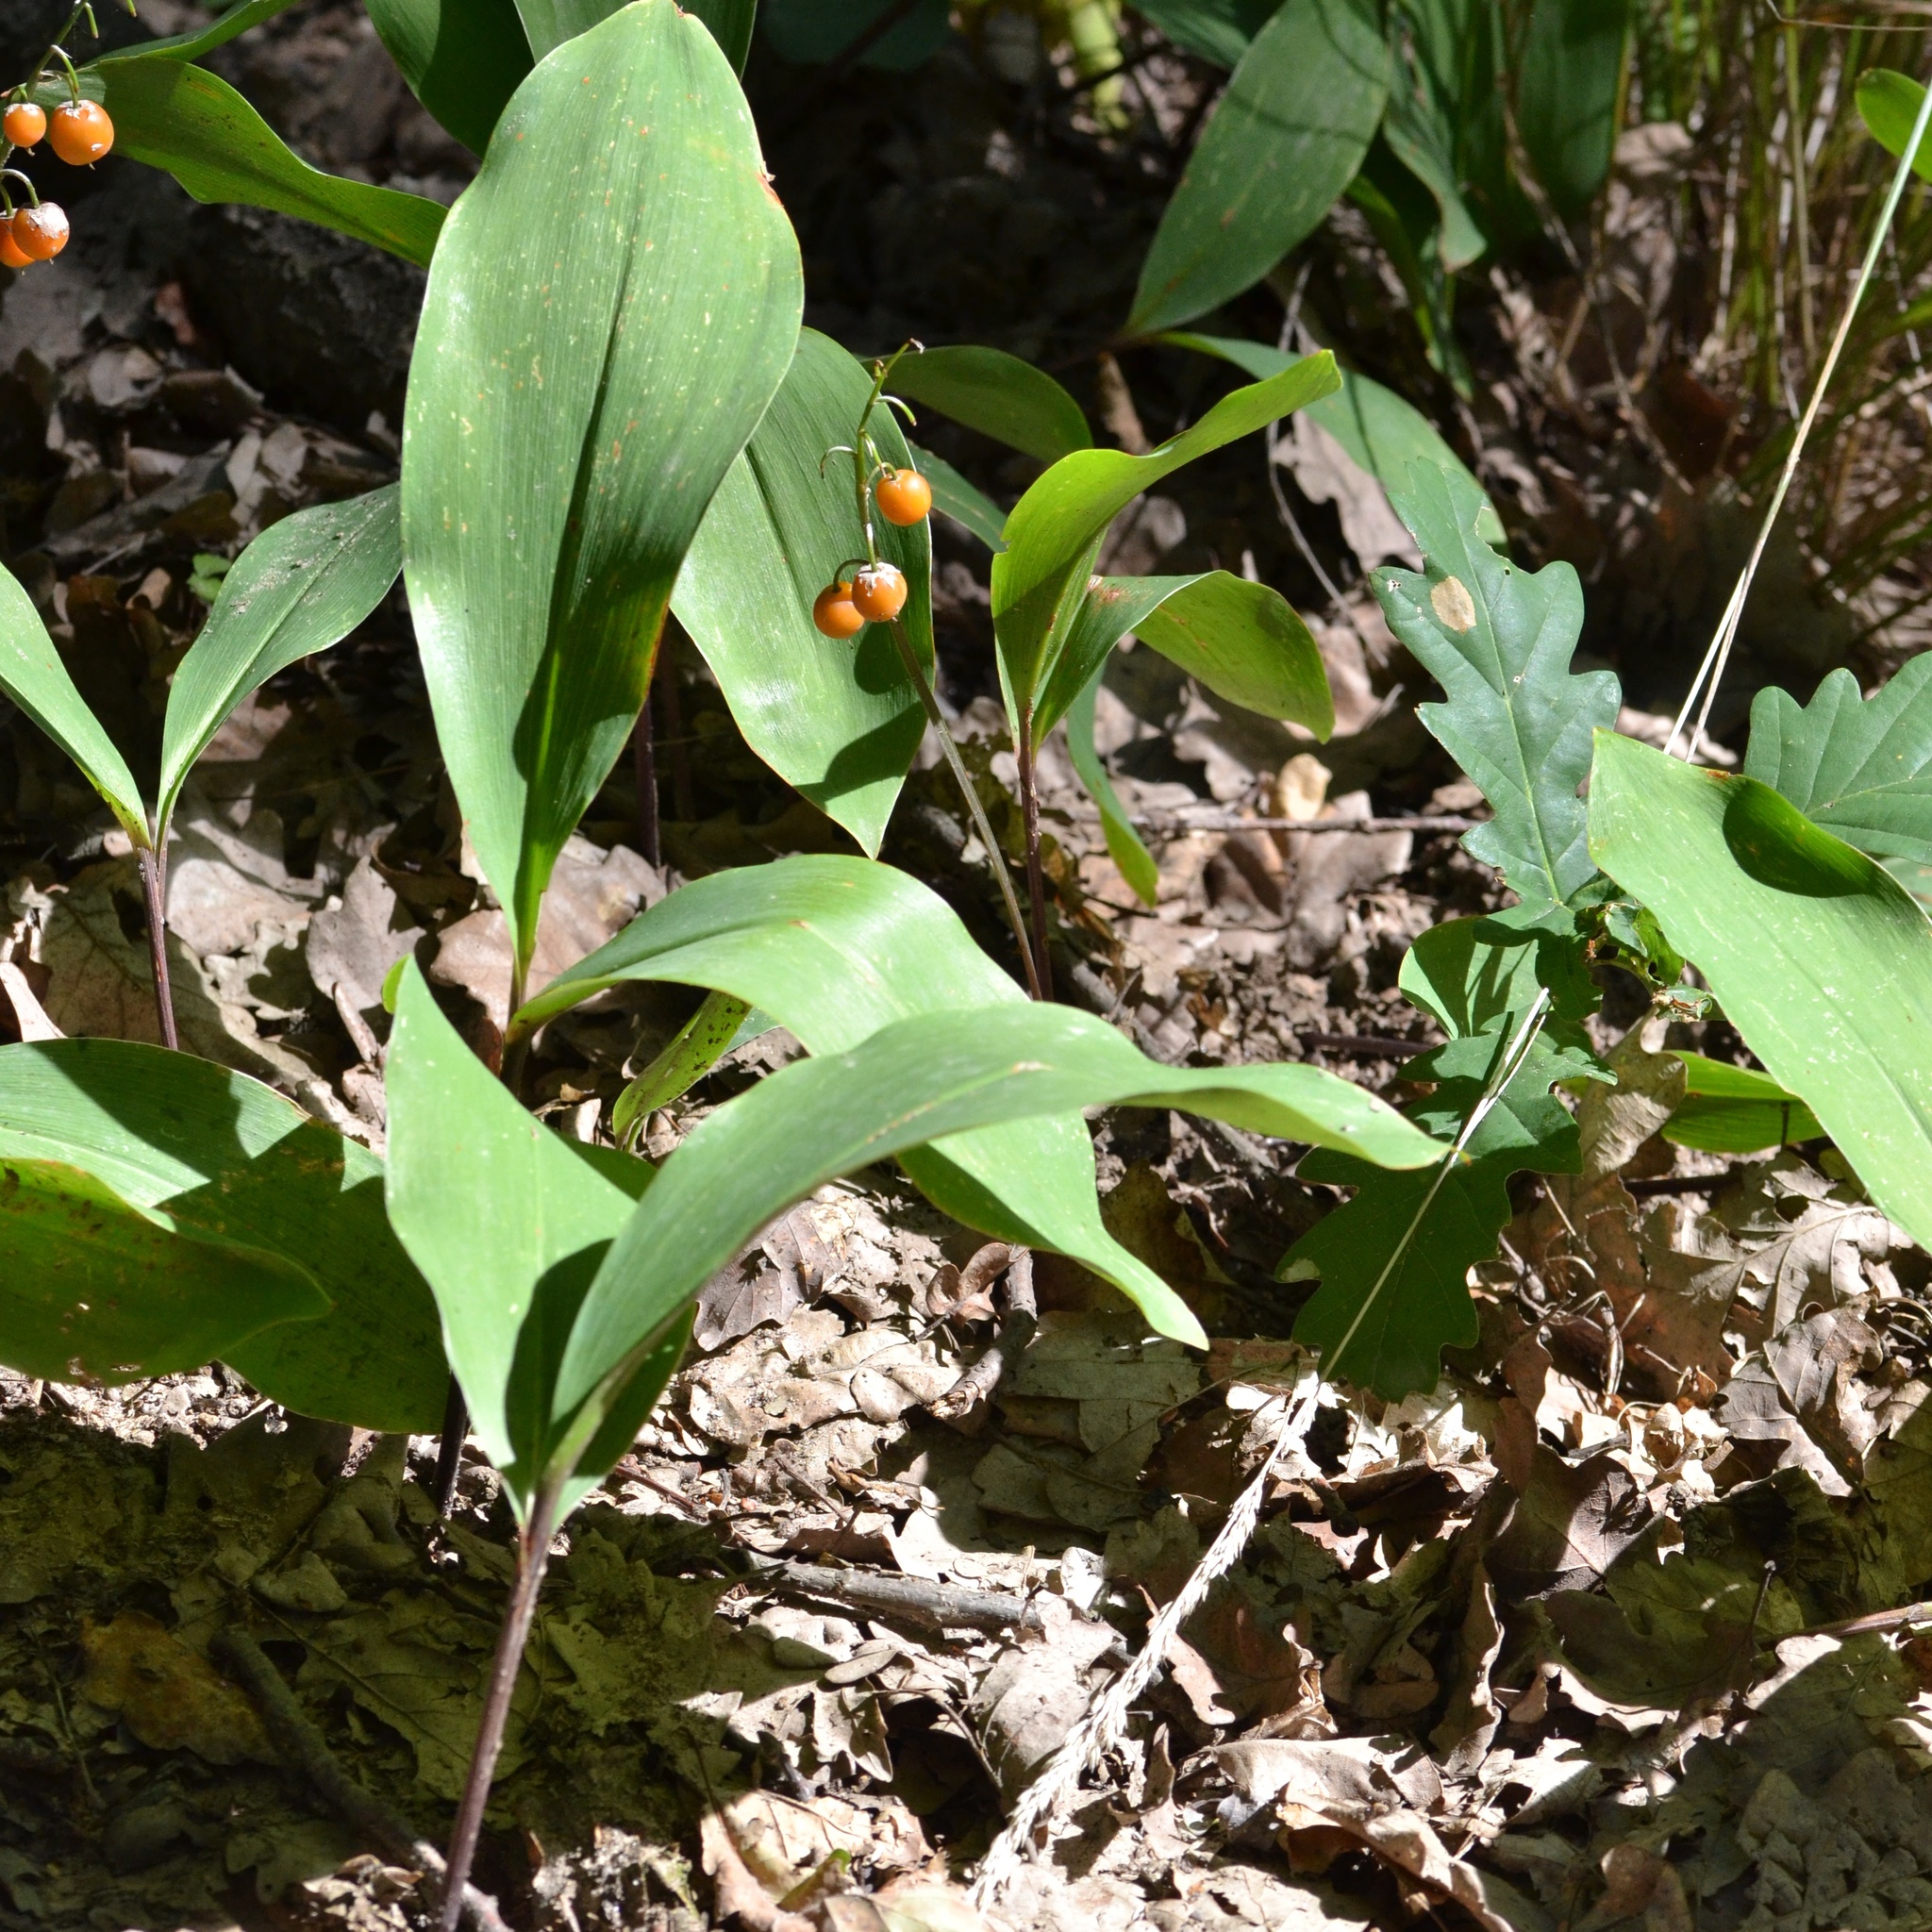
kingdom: Plantae
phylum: Tracheophyta
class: Liliopsida
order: Asparagales
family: Asparagaceae
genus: Convallaria
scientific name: Convallaria majalis
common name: Lily-of-the-valley
